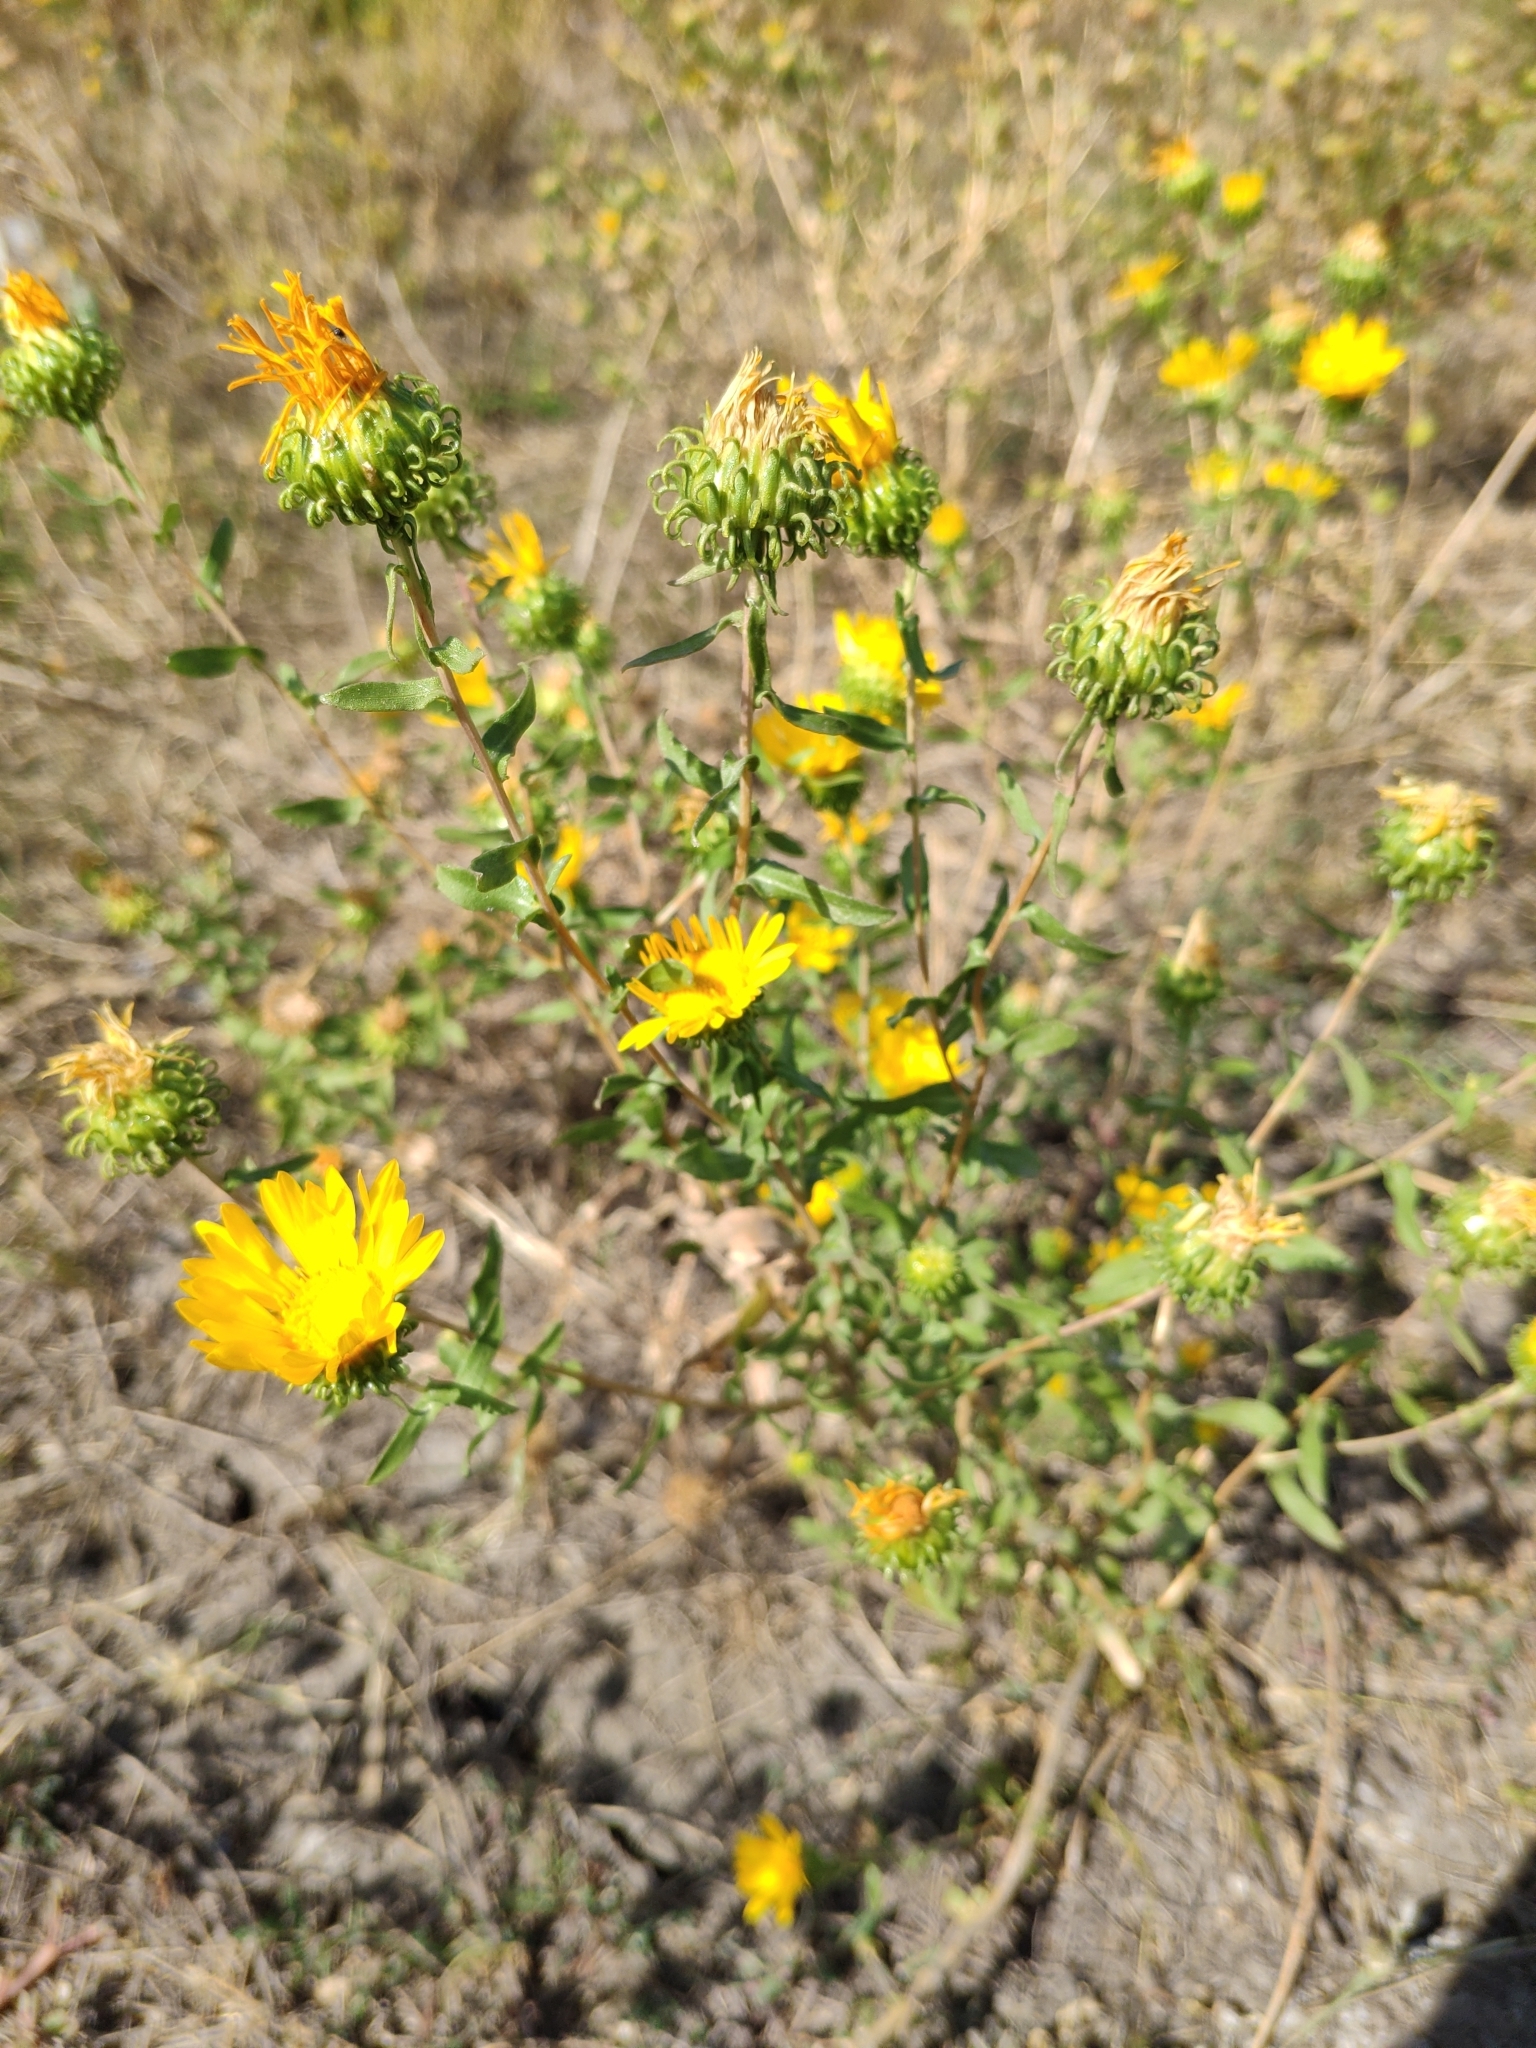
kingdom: Plantae
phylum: Tracheophyta
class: Magnoliopsida
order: Asterales
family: Asteraceae
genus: Grindelia
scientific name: Grindelia squarrosa
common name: Curly-cup gumweed
